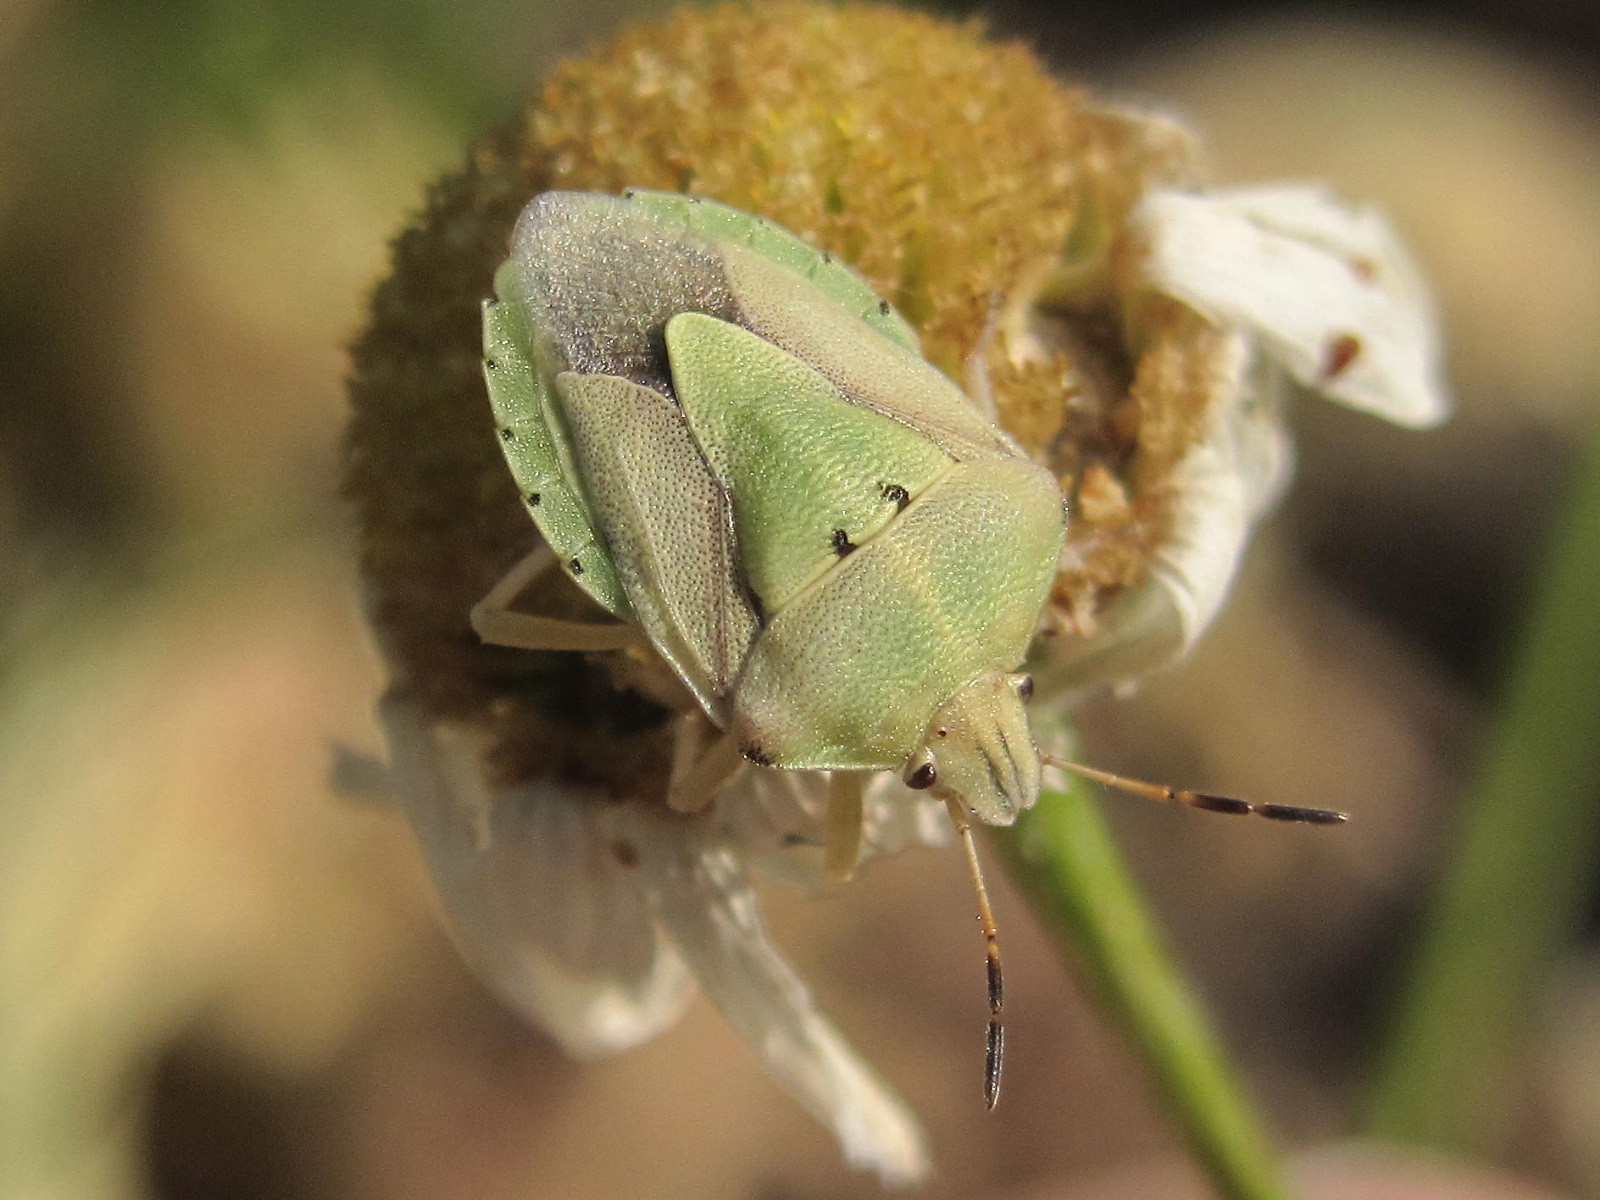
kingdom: Animalia
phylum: Arthropoda
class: Insecta
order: Hemiptera
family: Pentatomidae
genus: Antheminia
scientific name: Antheminia pusio
